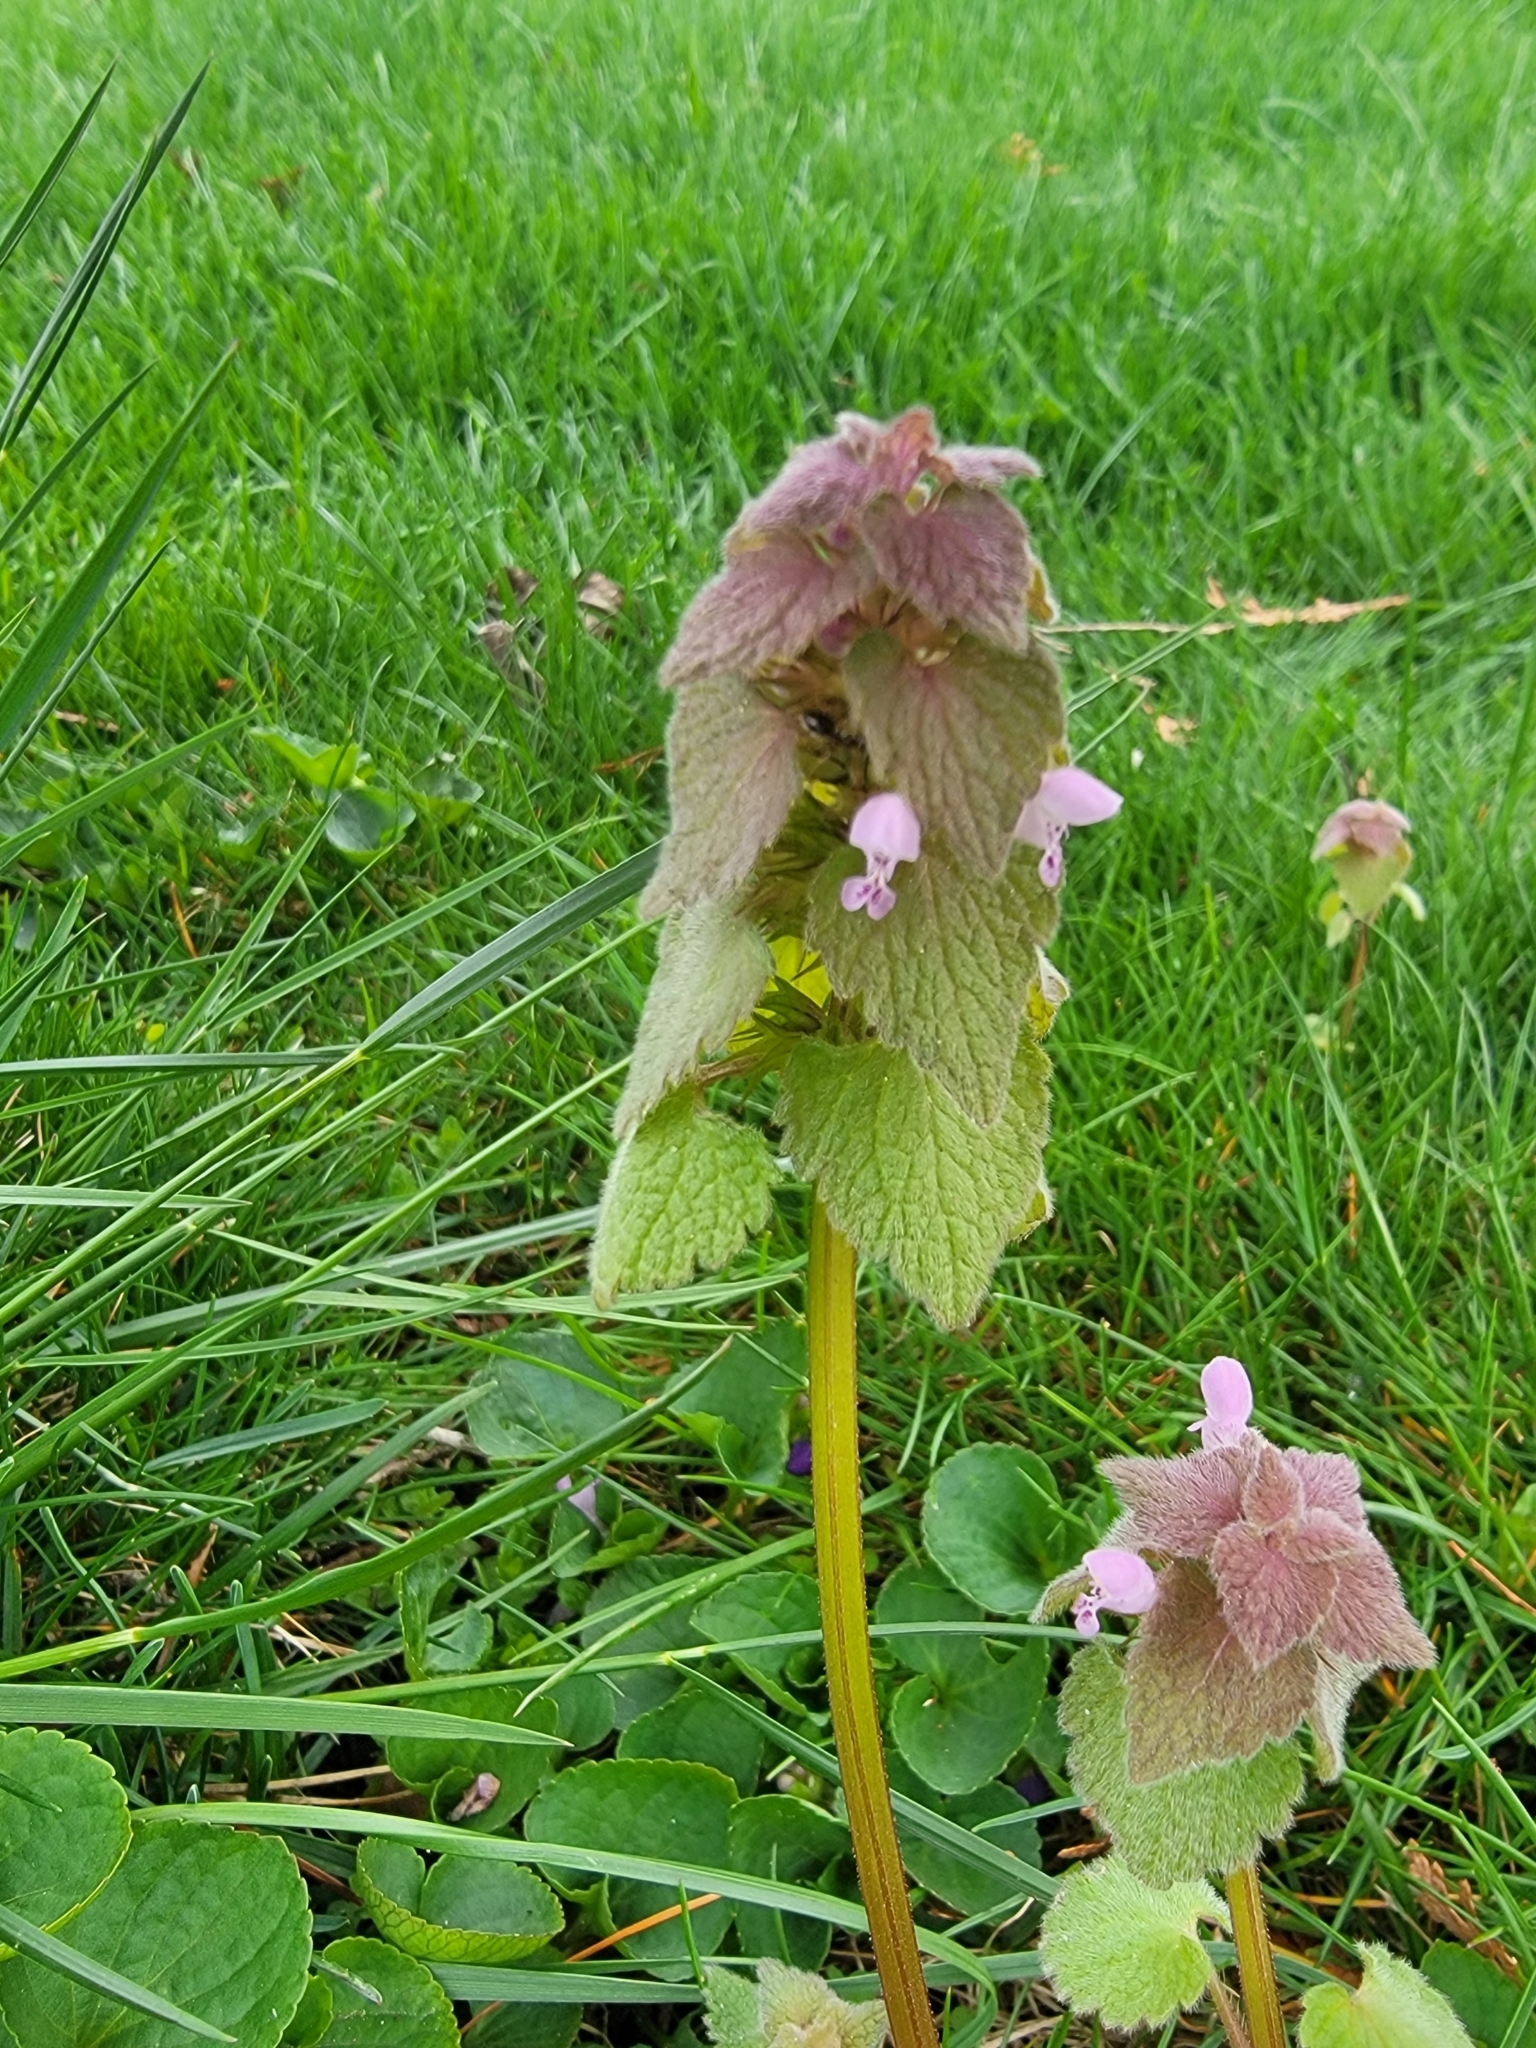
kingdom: Plantae
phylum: Tracheophyta
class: Magnoliopsida
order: Lamiales
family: Lamiaceae
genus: Lamium
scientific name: Lamium purpureum
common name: Red dead-nettle
